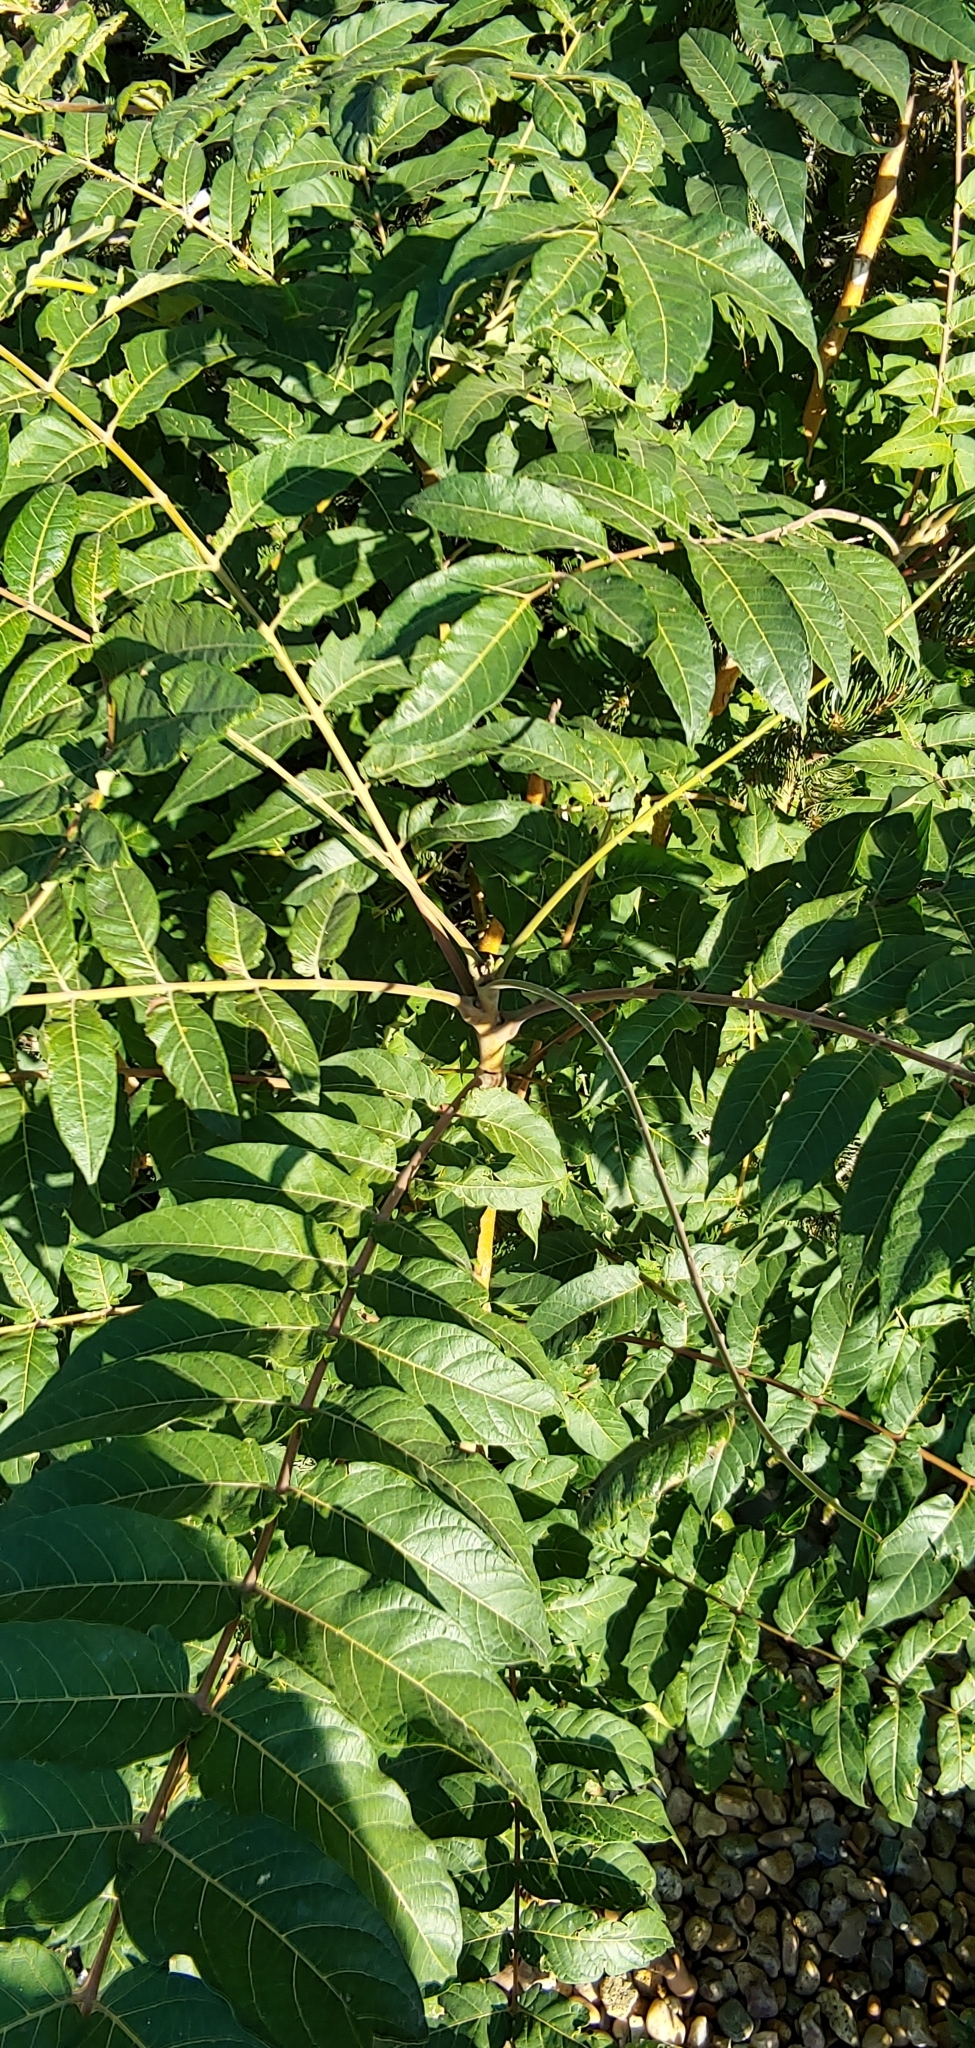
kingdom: Plantae
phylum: Tracheophyta
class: Magnoliopsida
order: Sapindales
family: Simaroubaceae
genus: Ailanthus
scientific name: Ailanthus altissima
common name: Tree-of-heaven
